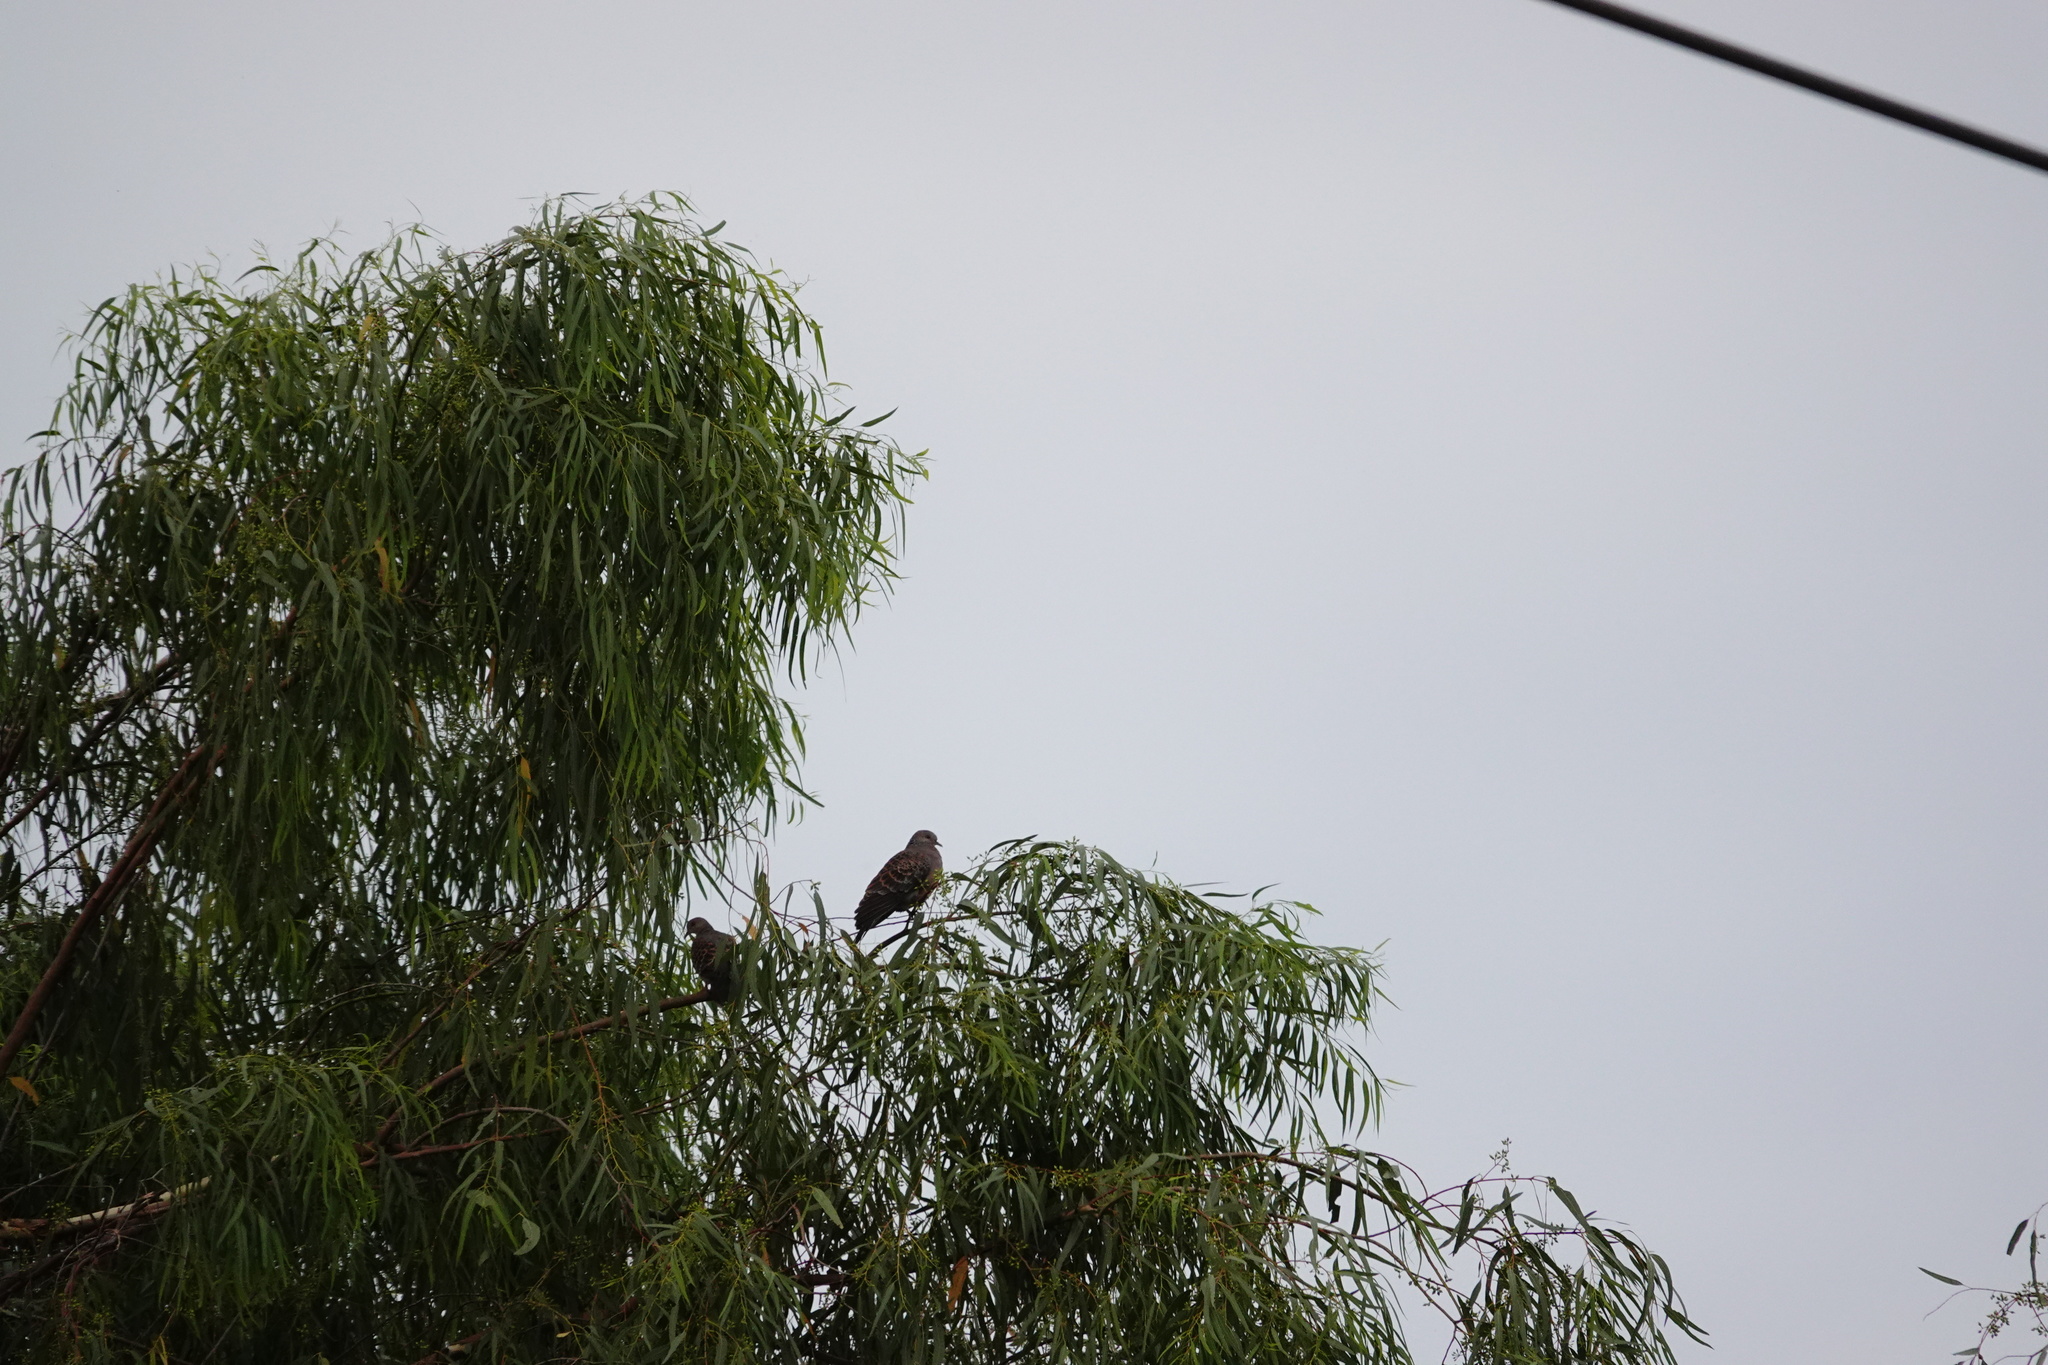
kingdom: Animalia
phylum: Chordata
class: Aves
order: Columbiformes
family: Columbidae
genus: Streptopelia
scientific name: Streptopelia orientalis
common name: Oriental turtle dove
